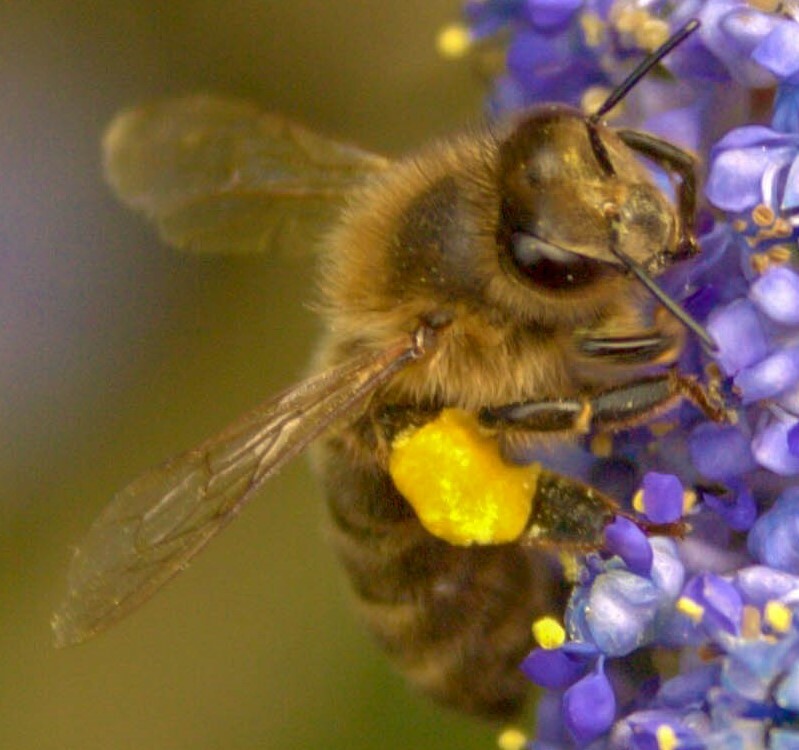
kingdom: Animalia
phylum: Arthropoda
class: Insecta
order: Hymenoptera
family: Apidae
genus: Apis
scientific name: Apis mellifera
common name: Honey bee
